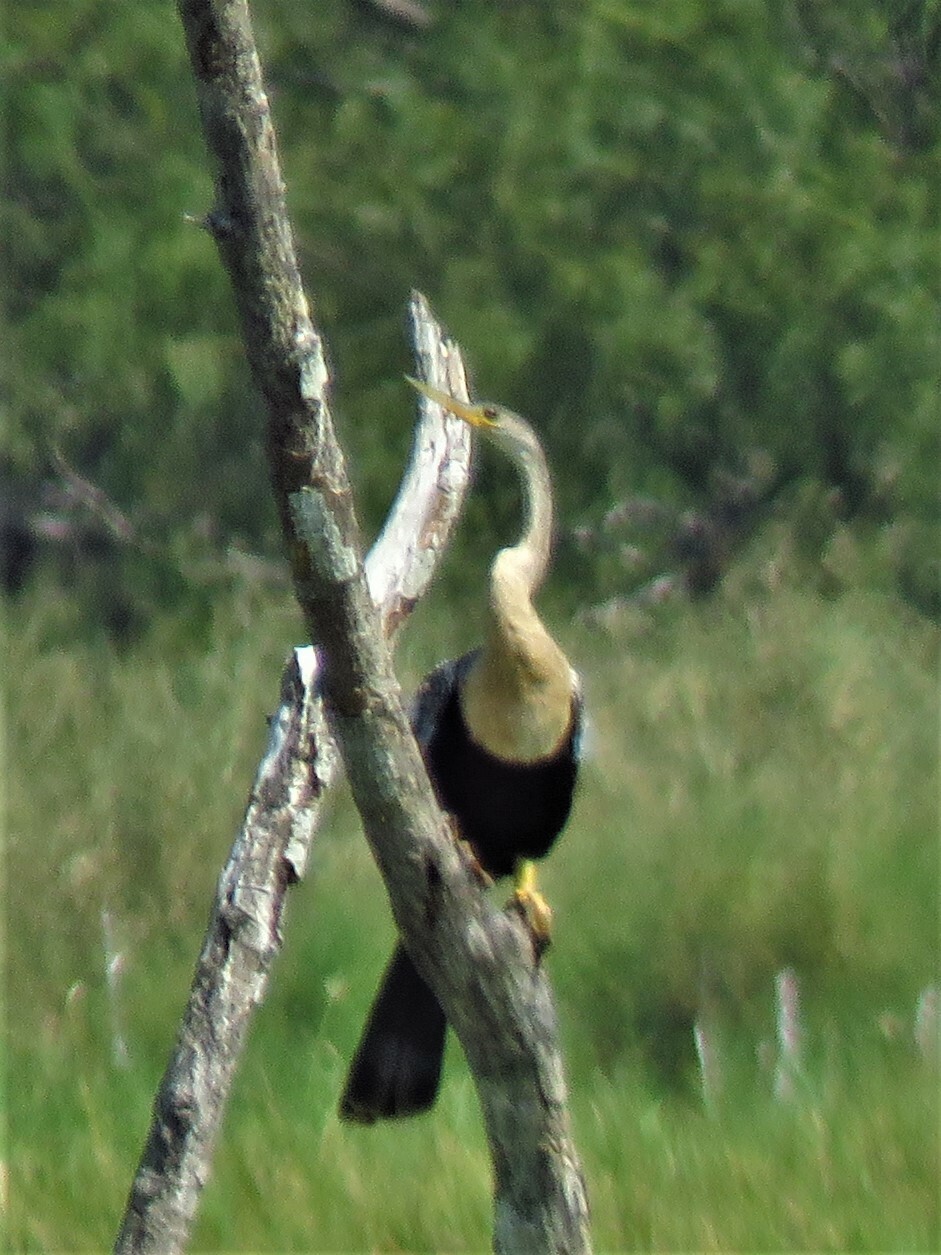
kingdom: Animalia
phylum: Chordata
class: Aves
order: Suliformes
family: Anhingidae
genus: Anhinga
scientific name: Anhinga anhinga
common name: Anhinga
